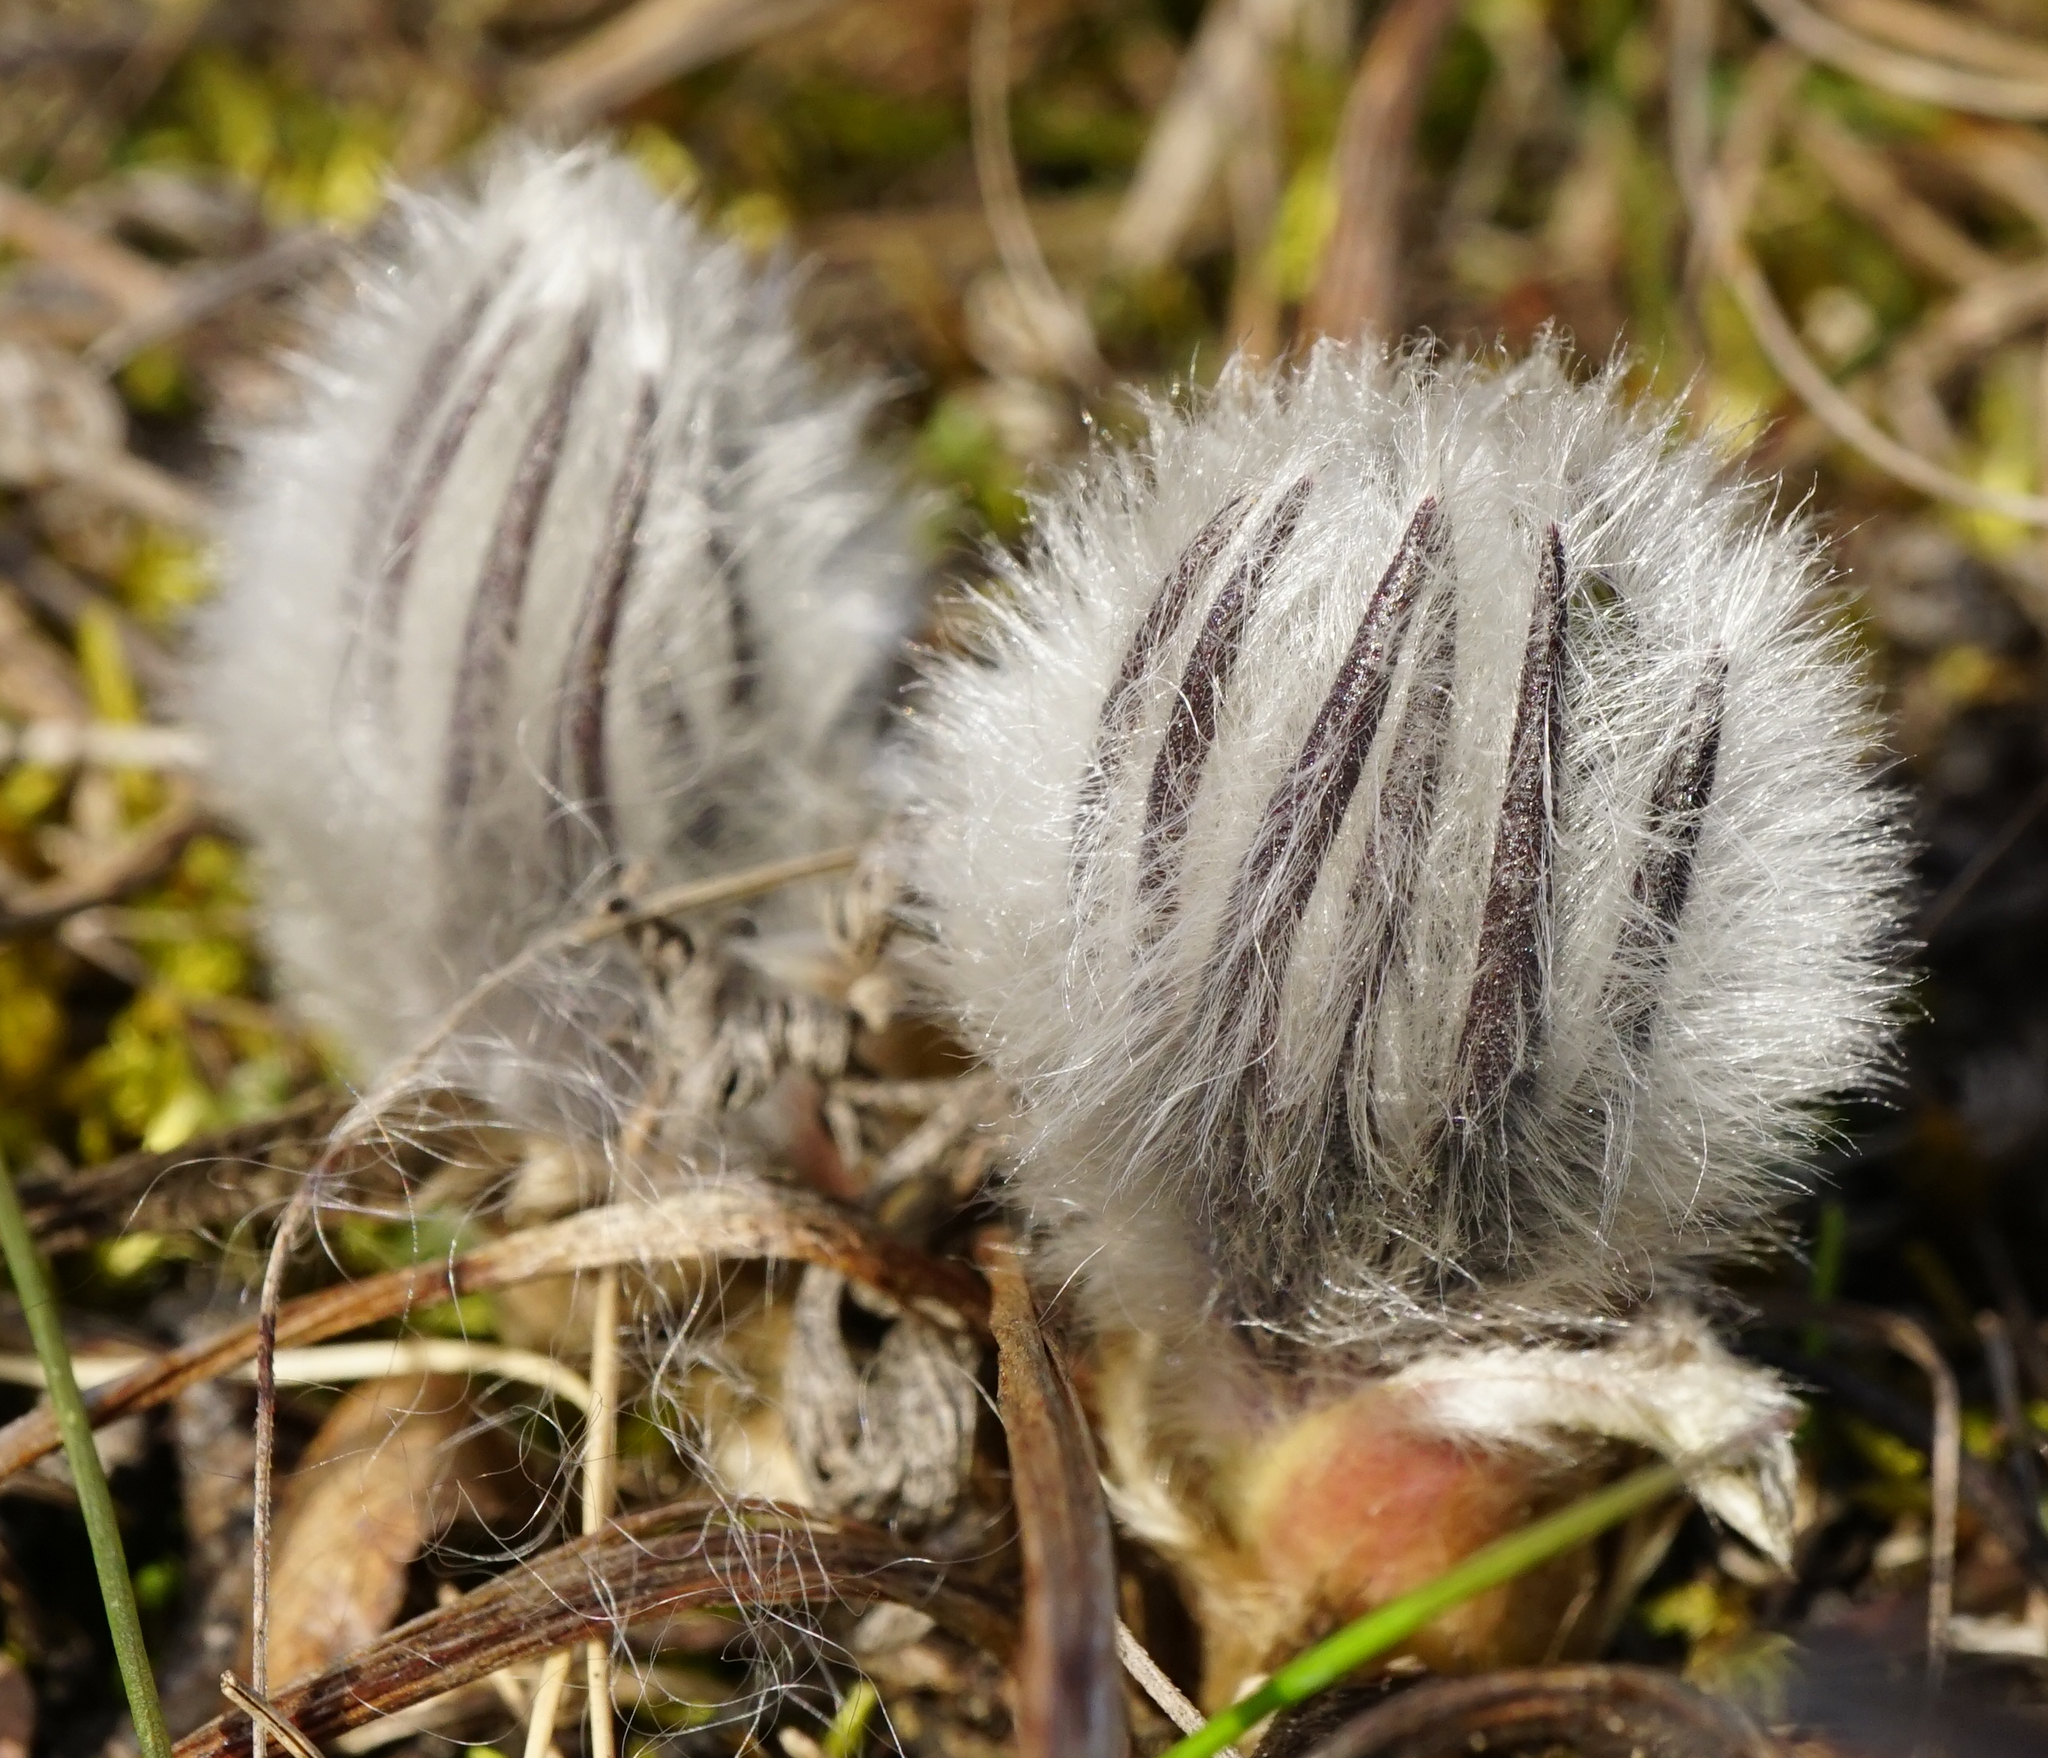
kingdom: Plantae
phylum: Tracheophyta
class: Magnoliopsida
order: Ranunculales
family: Ranunculaceae
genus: Pulsatilla
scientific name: Pulsatilla grandis
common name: Greater pasque flower
